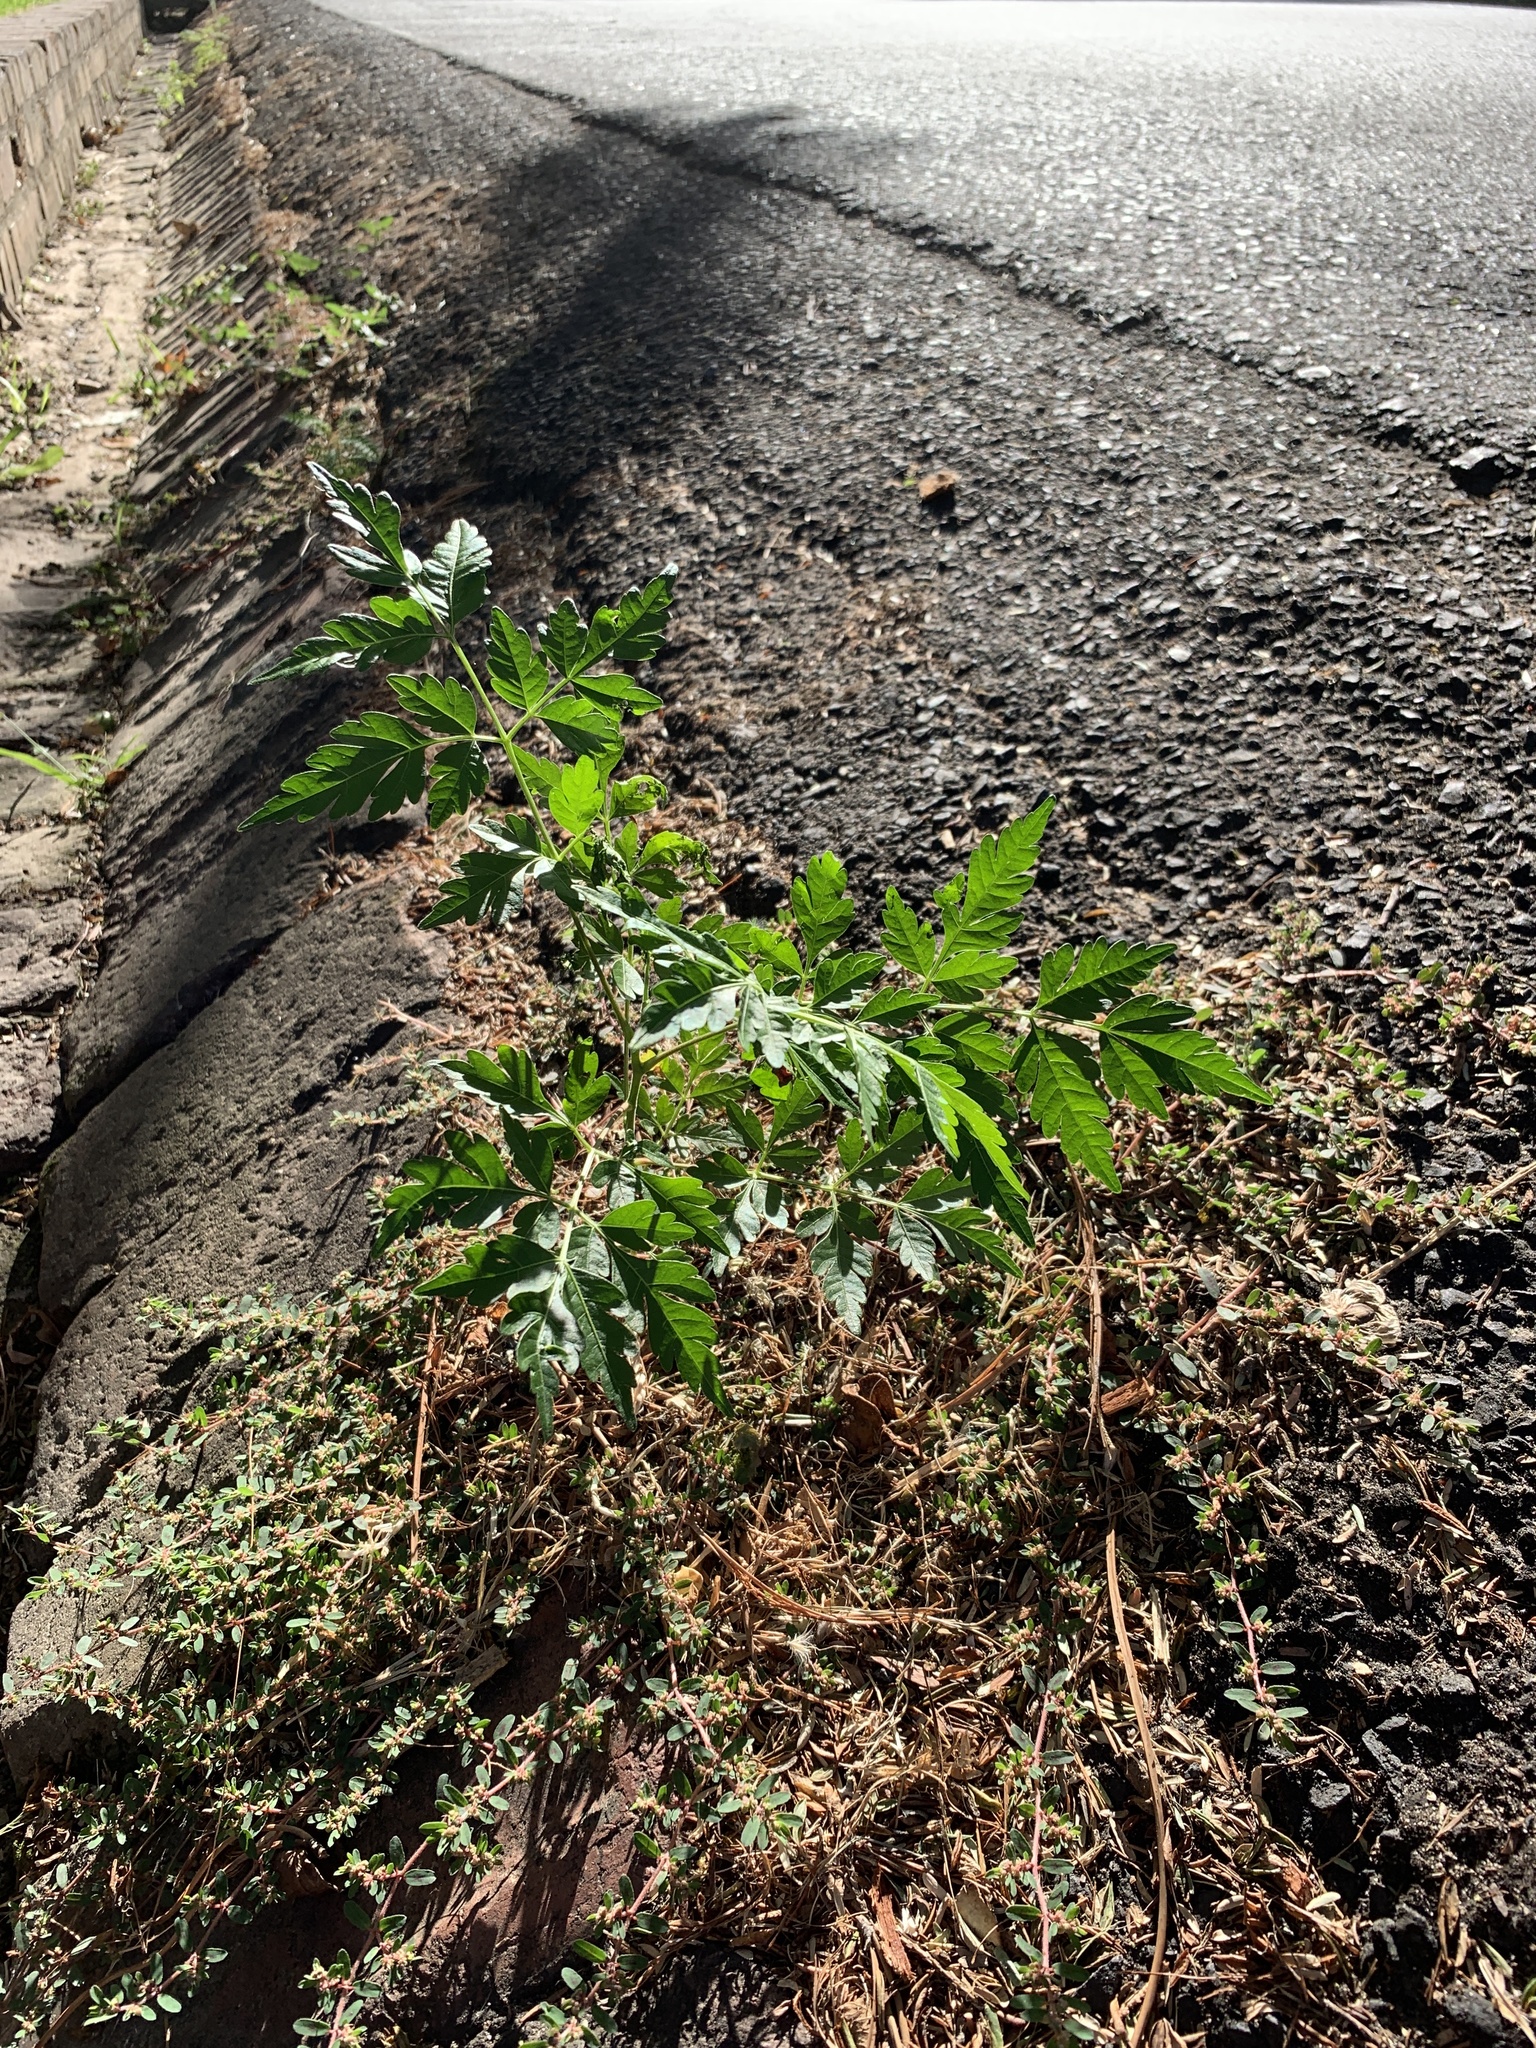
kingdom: Plantae
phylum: Tracheophyta
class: Magnoliopsida
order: Sapindales
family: Meliaceae
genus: Melia
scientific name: Melia azedarach
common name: Chinaberrytree
